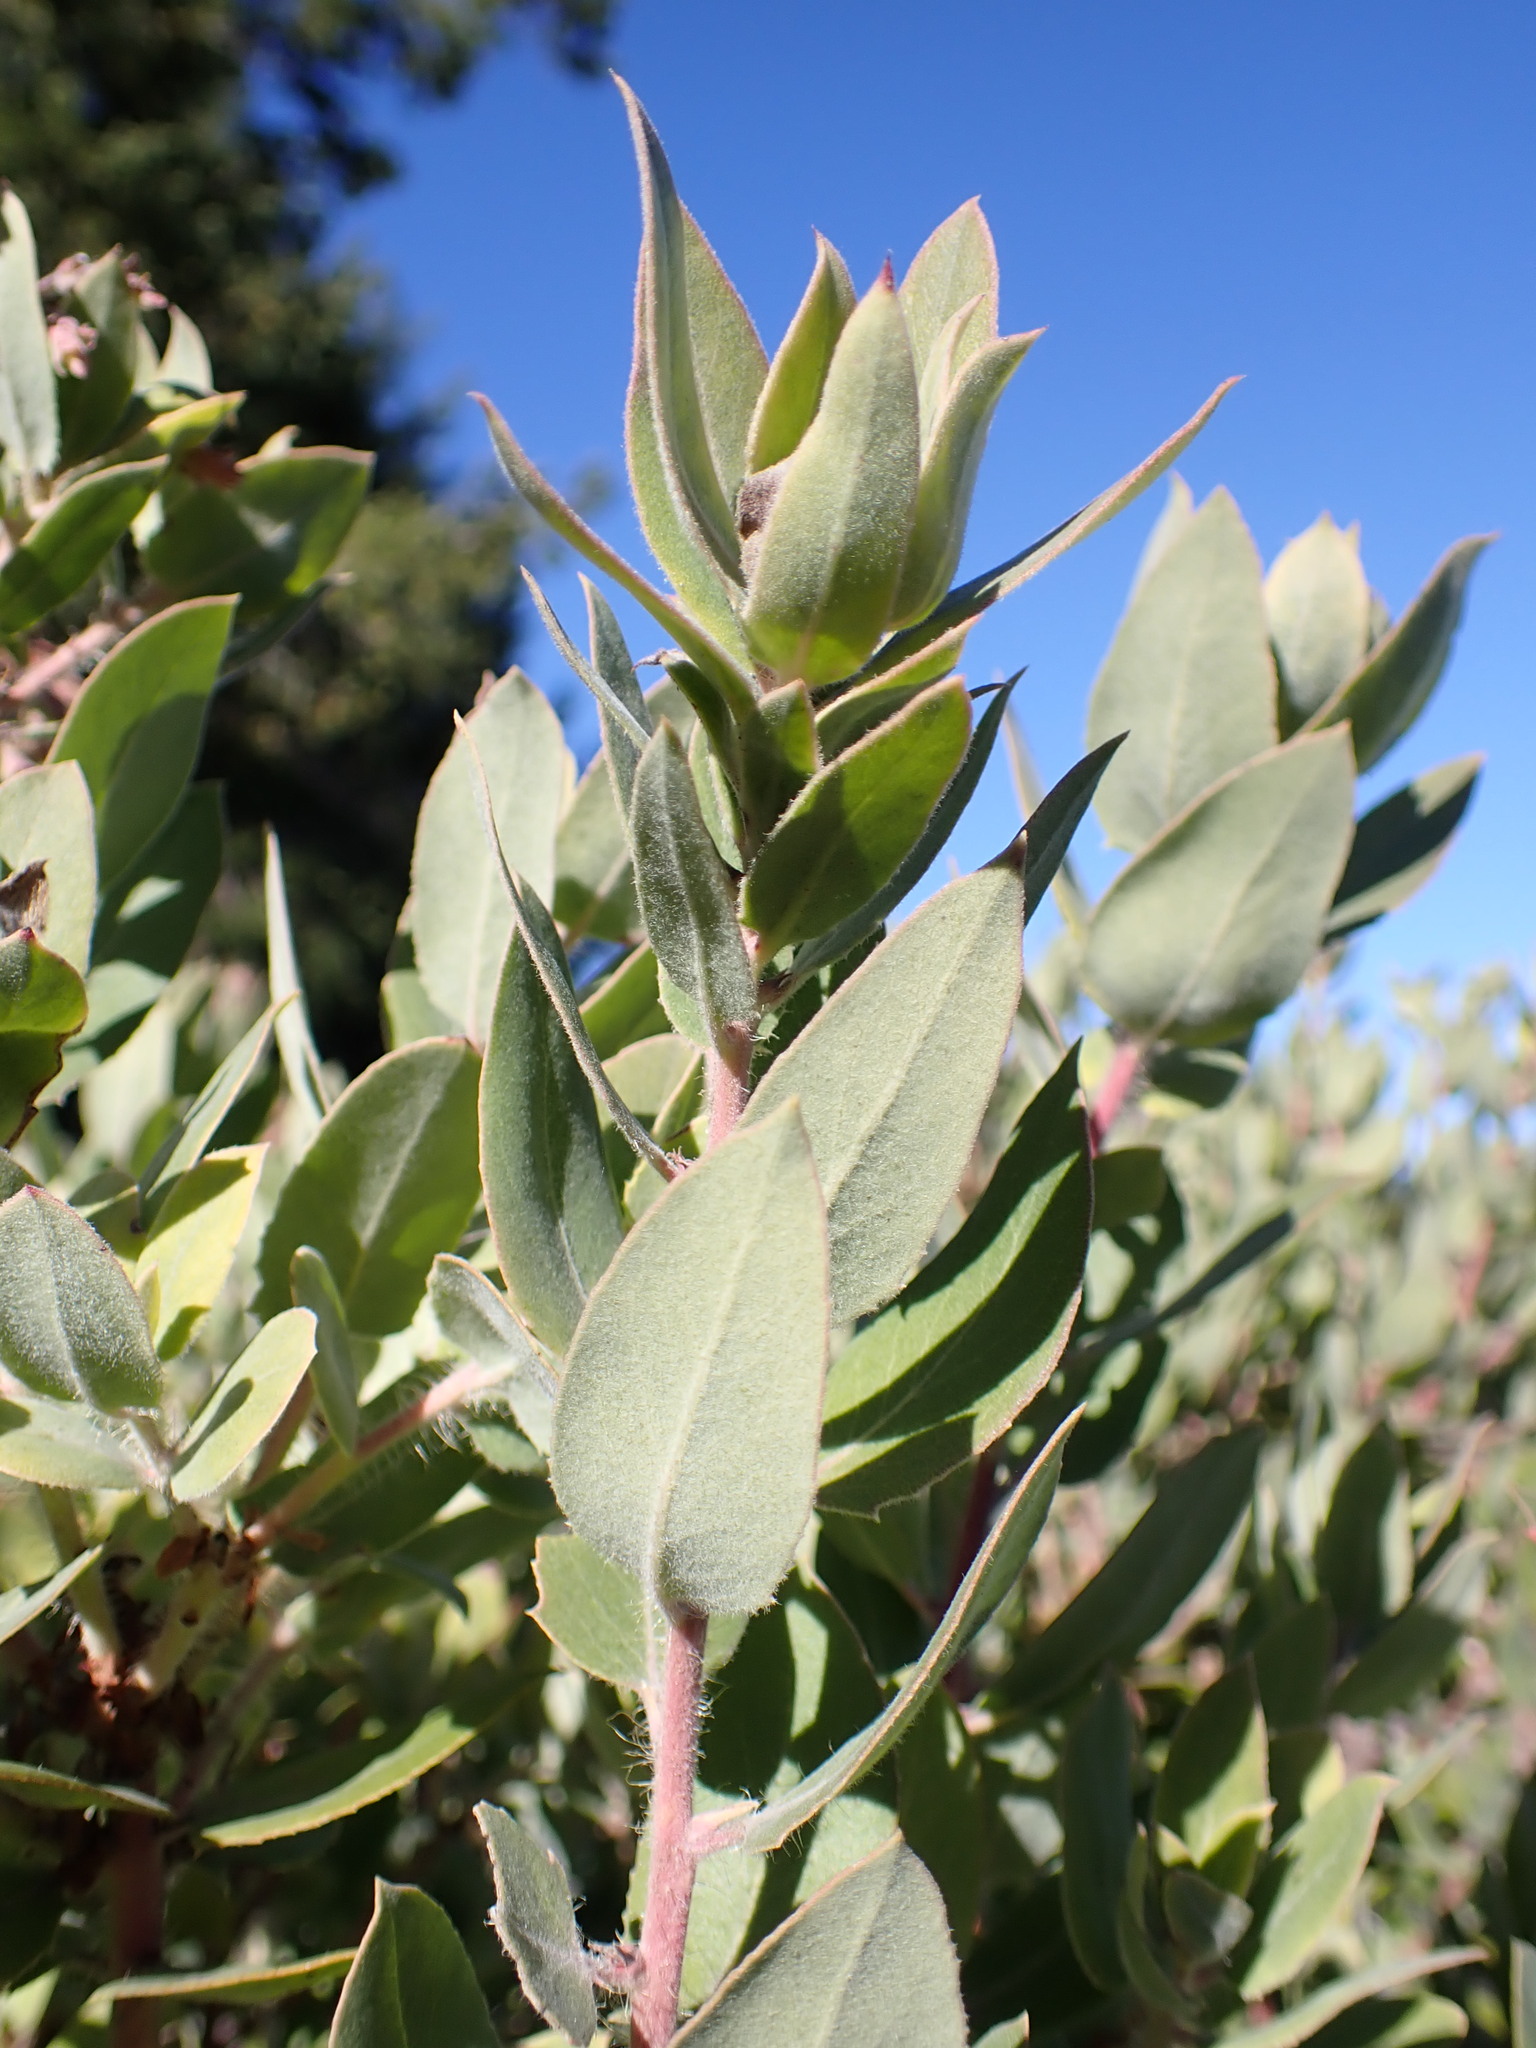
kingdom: Plantae
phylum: Tracheophyta
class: Magnoliopsida
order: Ericales
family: Ericaceae
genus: Arctostaphylos
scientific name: Arctostaphylos crustacea
